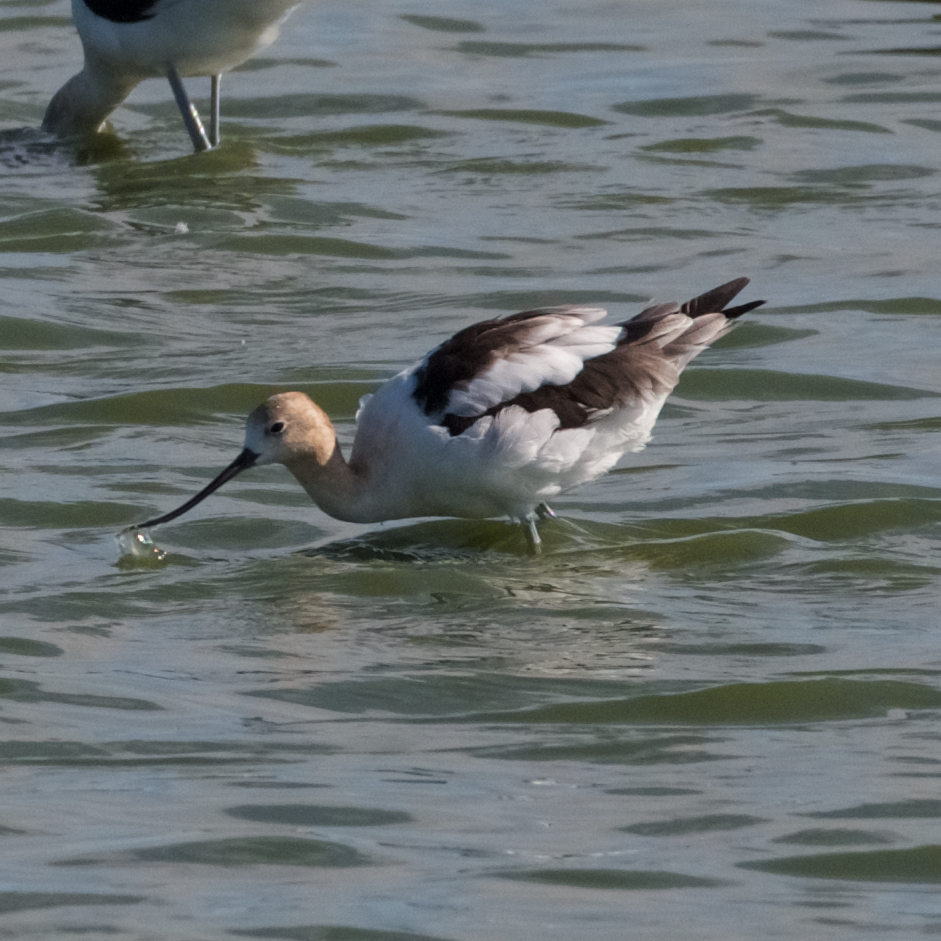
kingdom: Animalia
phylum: Chordata
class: Aves
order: Charadriiformes
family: Recurvirostridae
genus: Recurvirostra
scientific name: Recurvirostra americana
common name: American avocet
